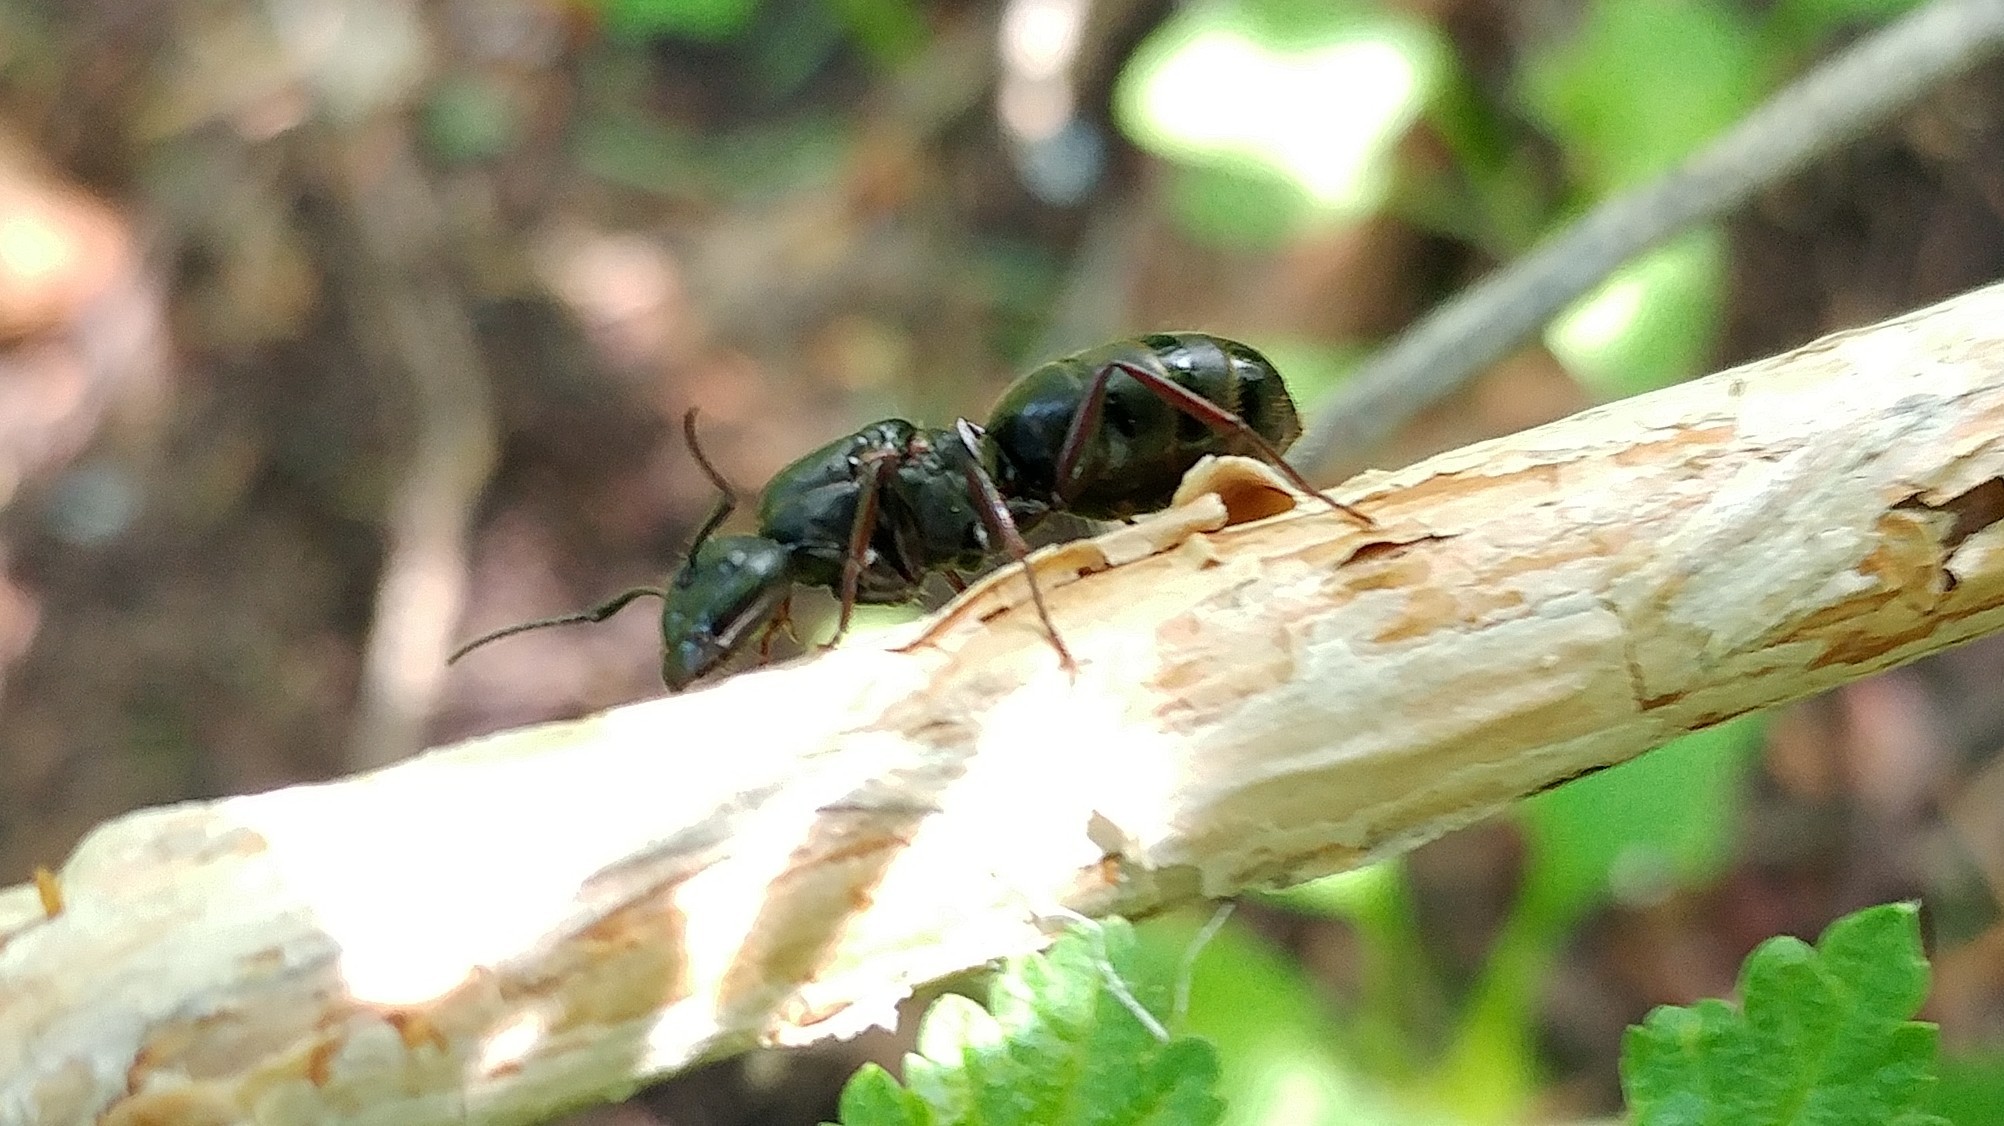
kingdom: Animalia
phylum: Arthropoda
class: Insecta
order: Hymenoptera
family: Formicidae
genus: Camponotus
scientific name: Camponotus modoc
